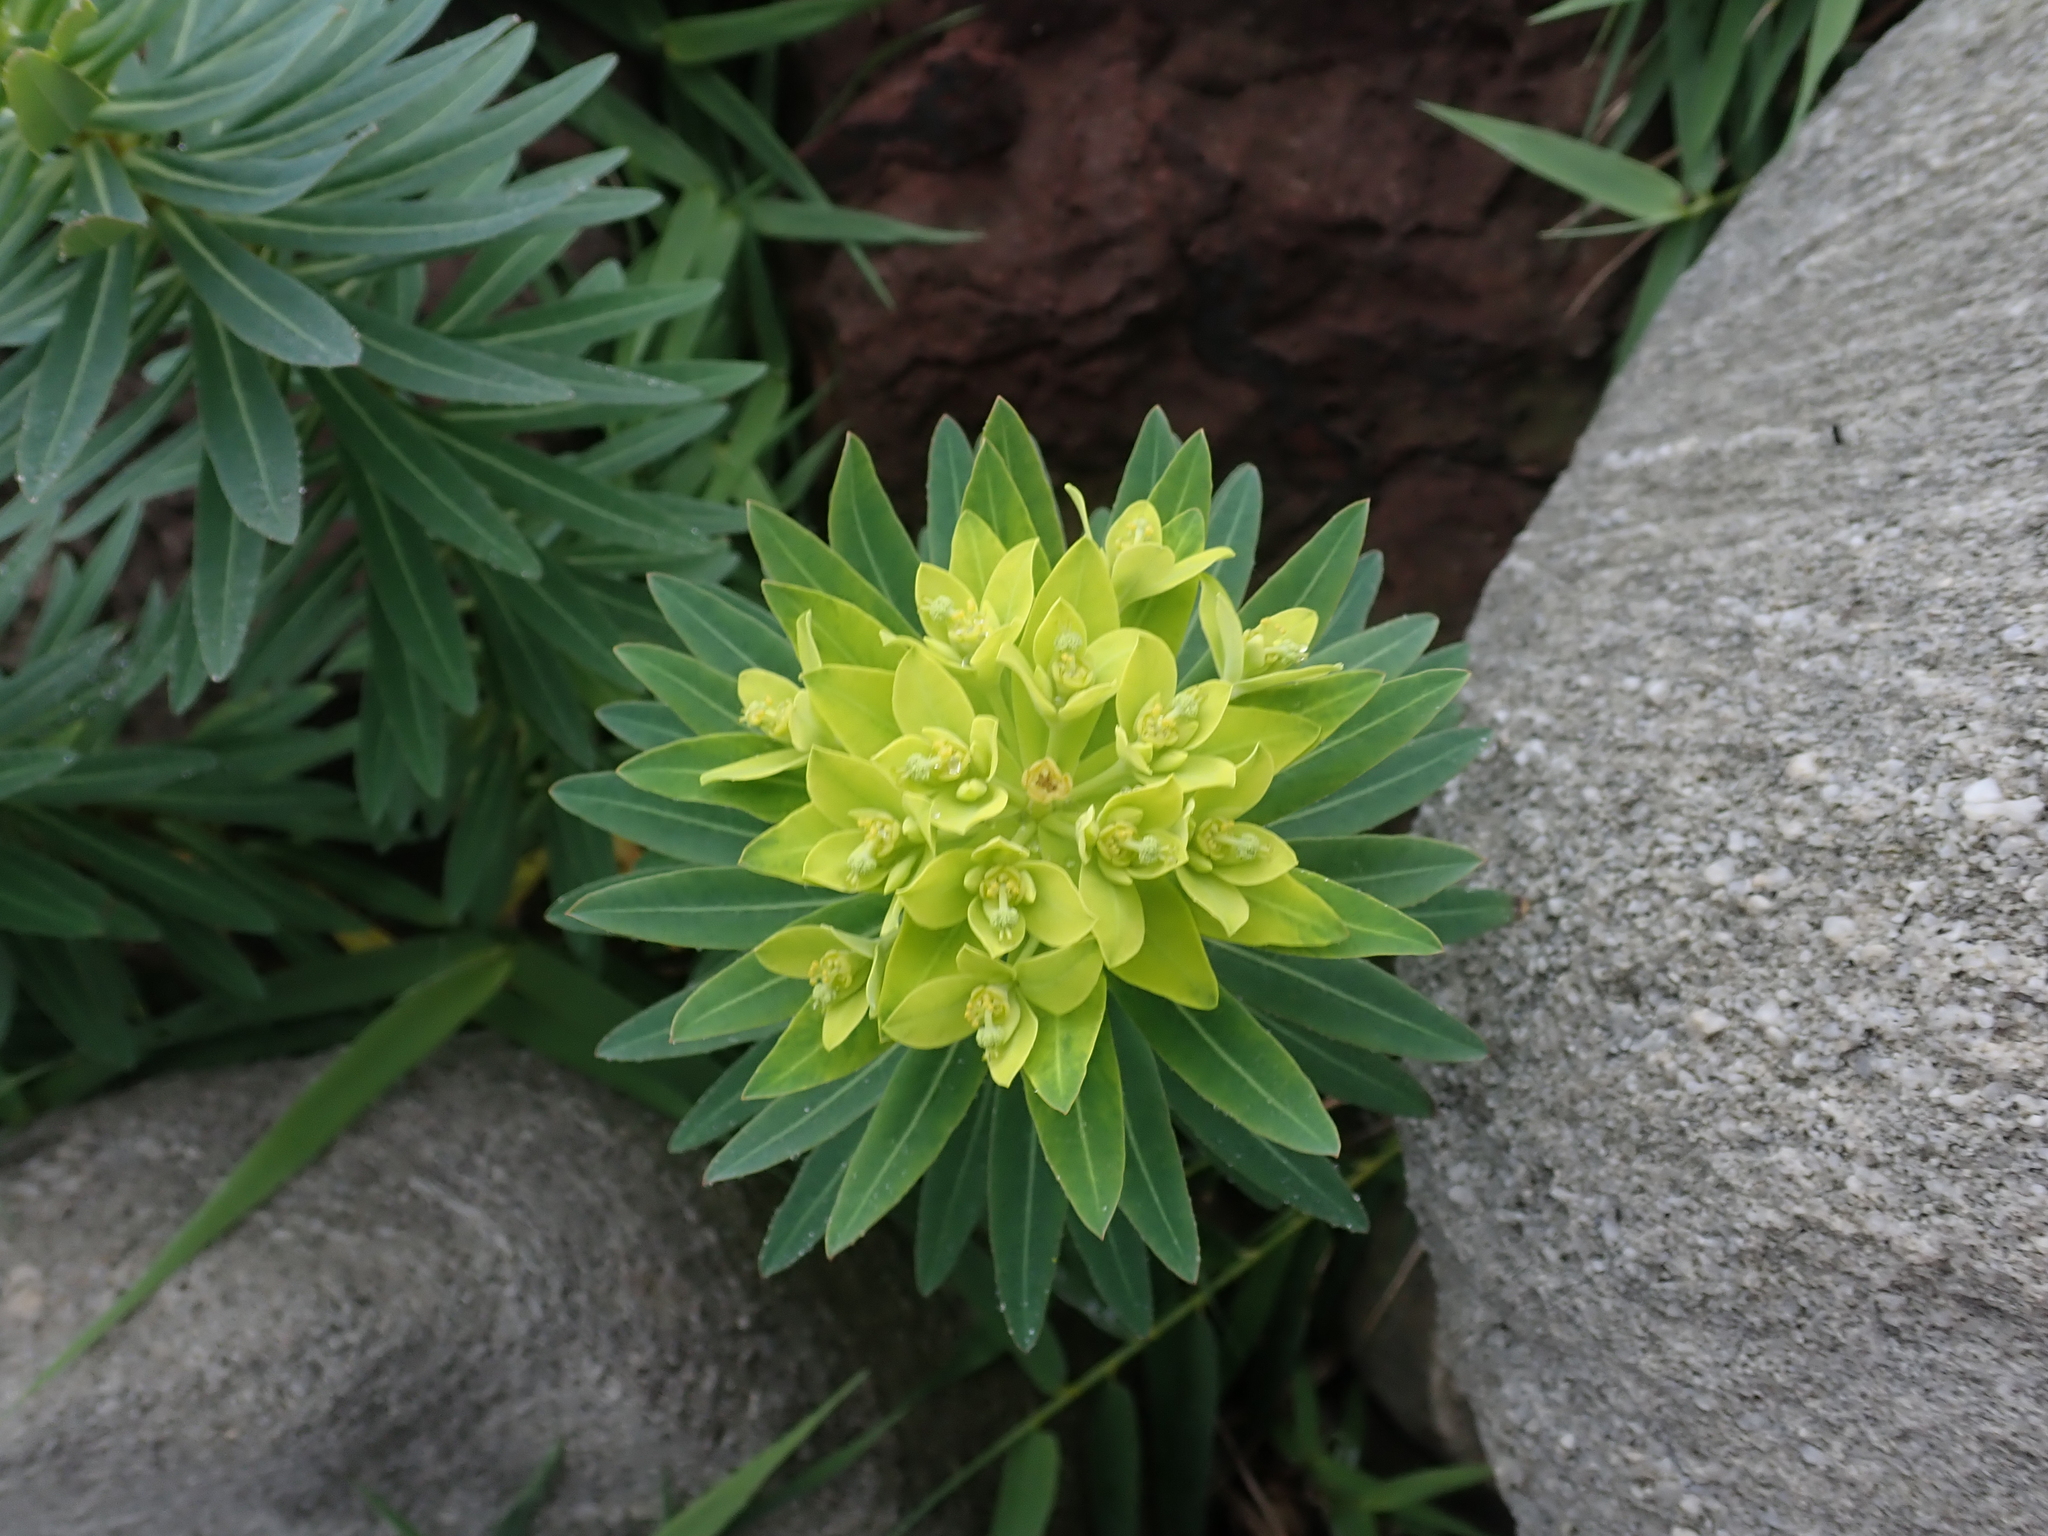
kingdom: Plantae
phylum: Tracheophyta
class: Magnoliopsida
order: Malpighiales
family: Euphorbiaceae
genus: Euphorbia
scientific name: Euphorbia jolkinii
